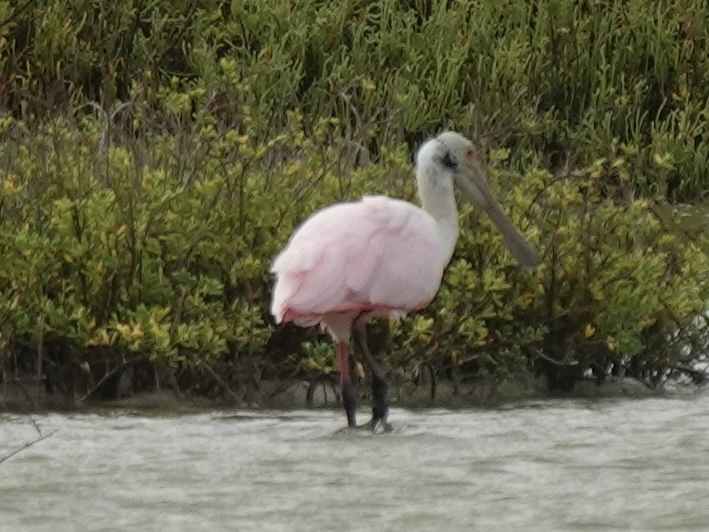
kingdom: Animalia
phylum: Chordata
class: Aves
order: Pelecaniformes
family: Threskiornithidae
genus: Platalea
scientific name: Platalea ajaja
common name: Roseate spoonbill
